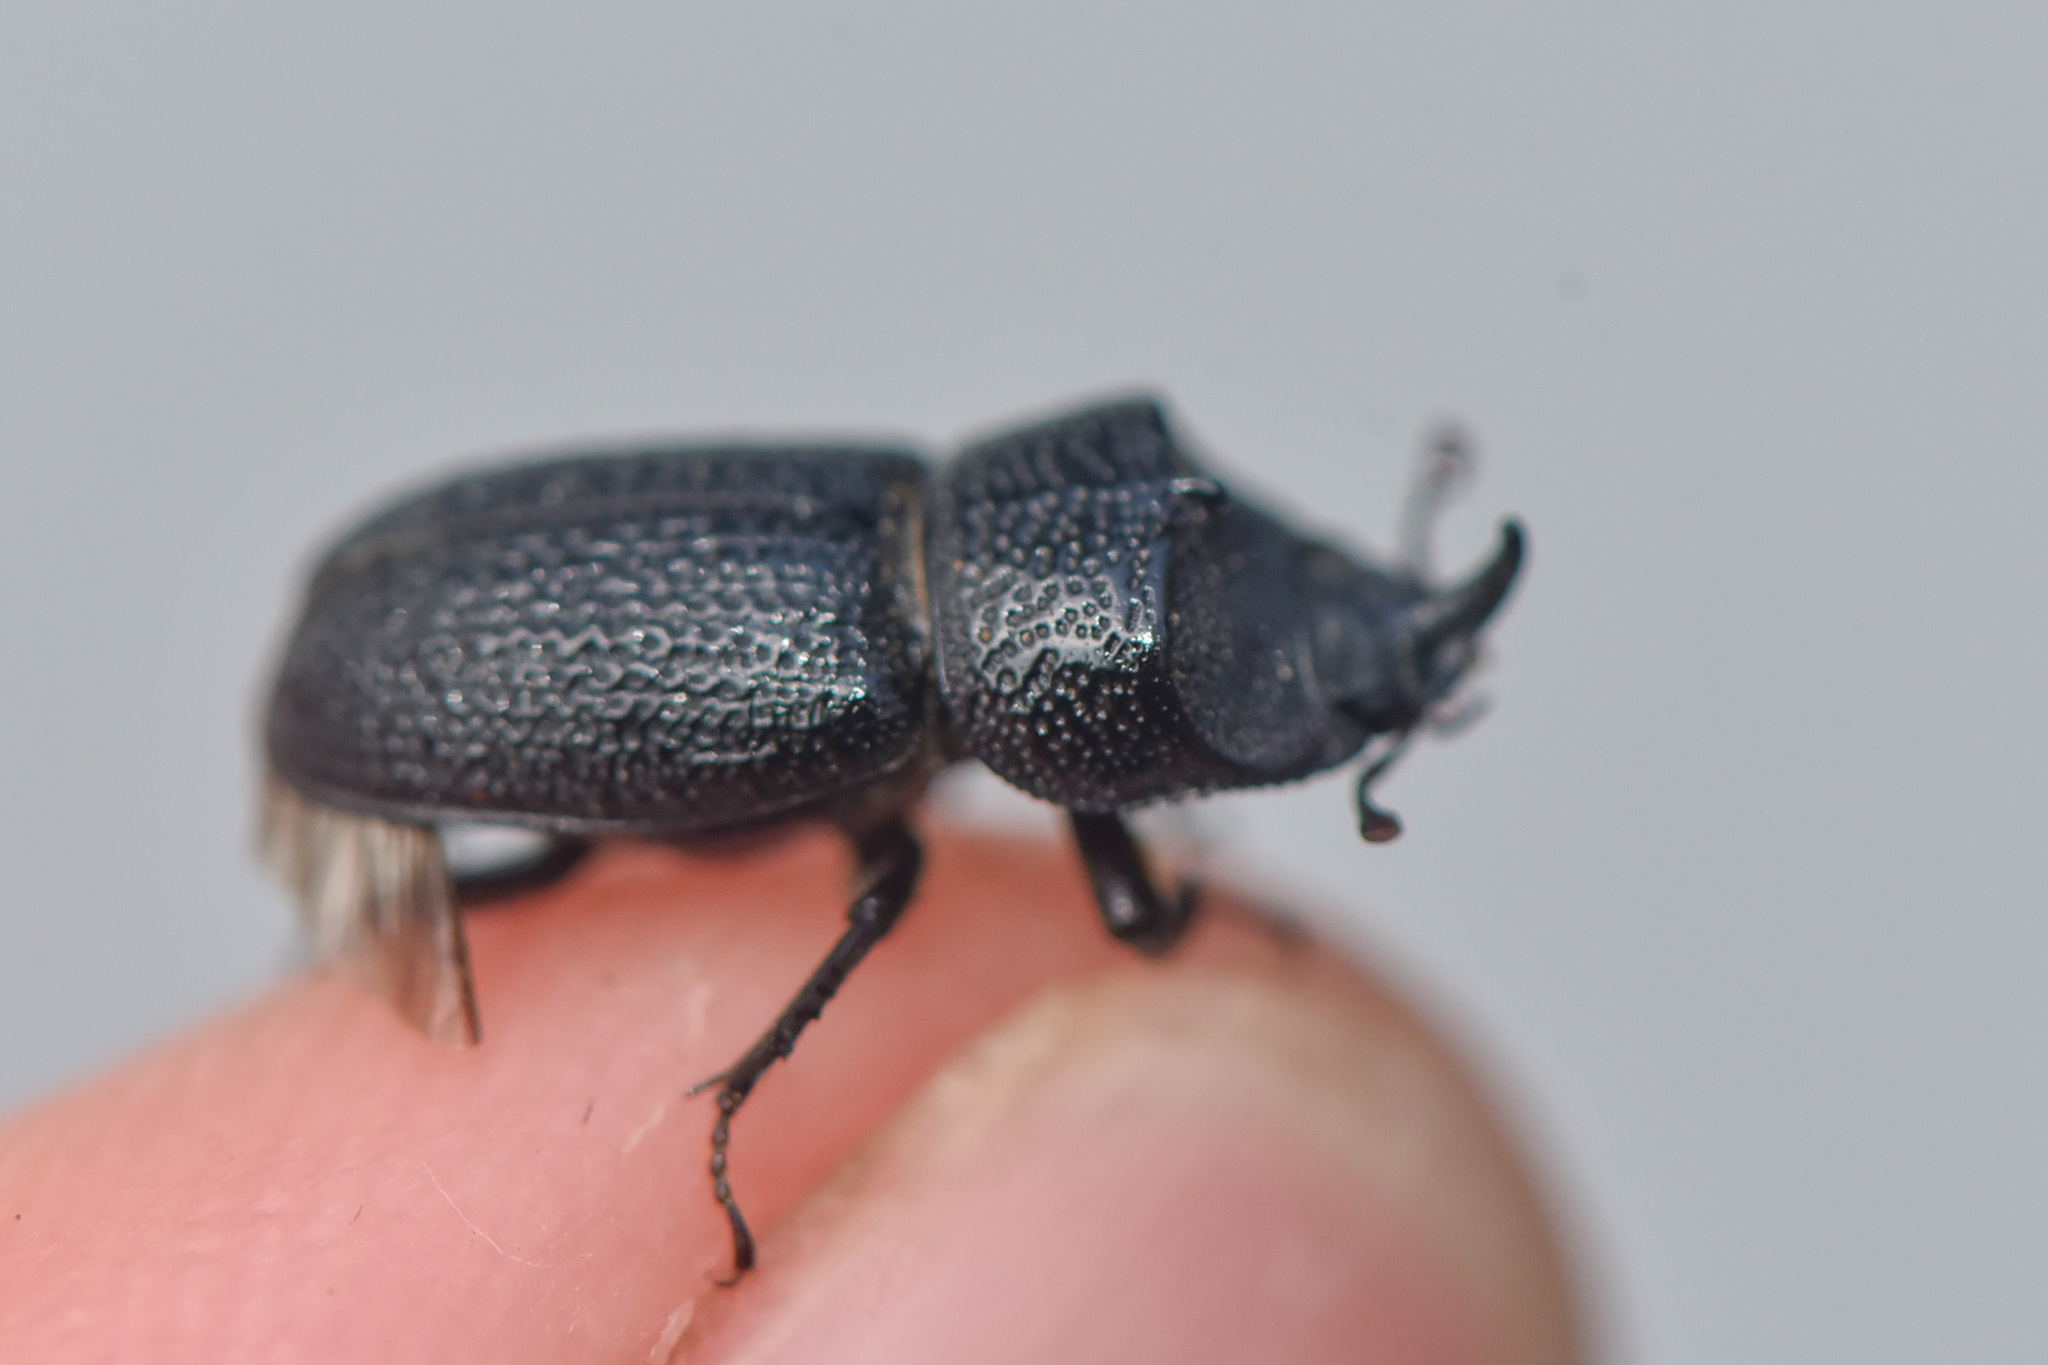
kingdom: Animalia
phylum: Arthropoda
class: Insecta
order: Coleoptera
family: Lucanidae
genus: Sinodendron
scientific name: Sinodendron rugosum
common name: Rugose stag beelte
